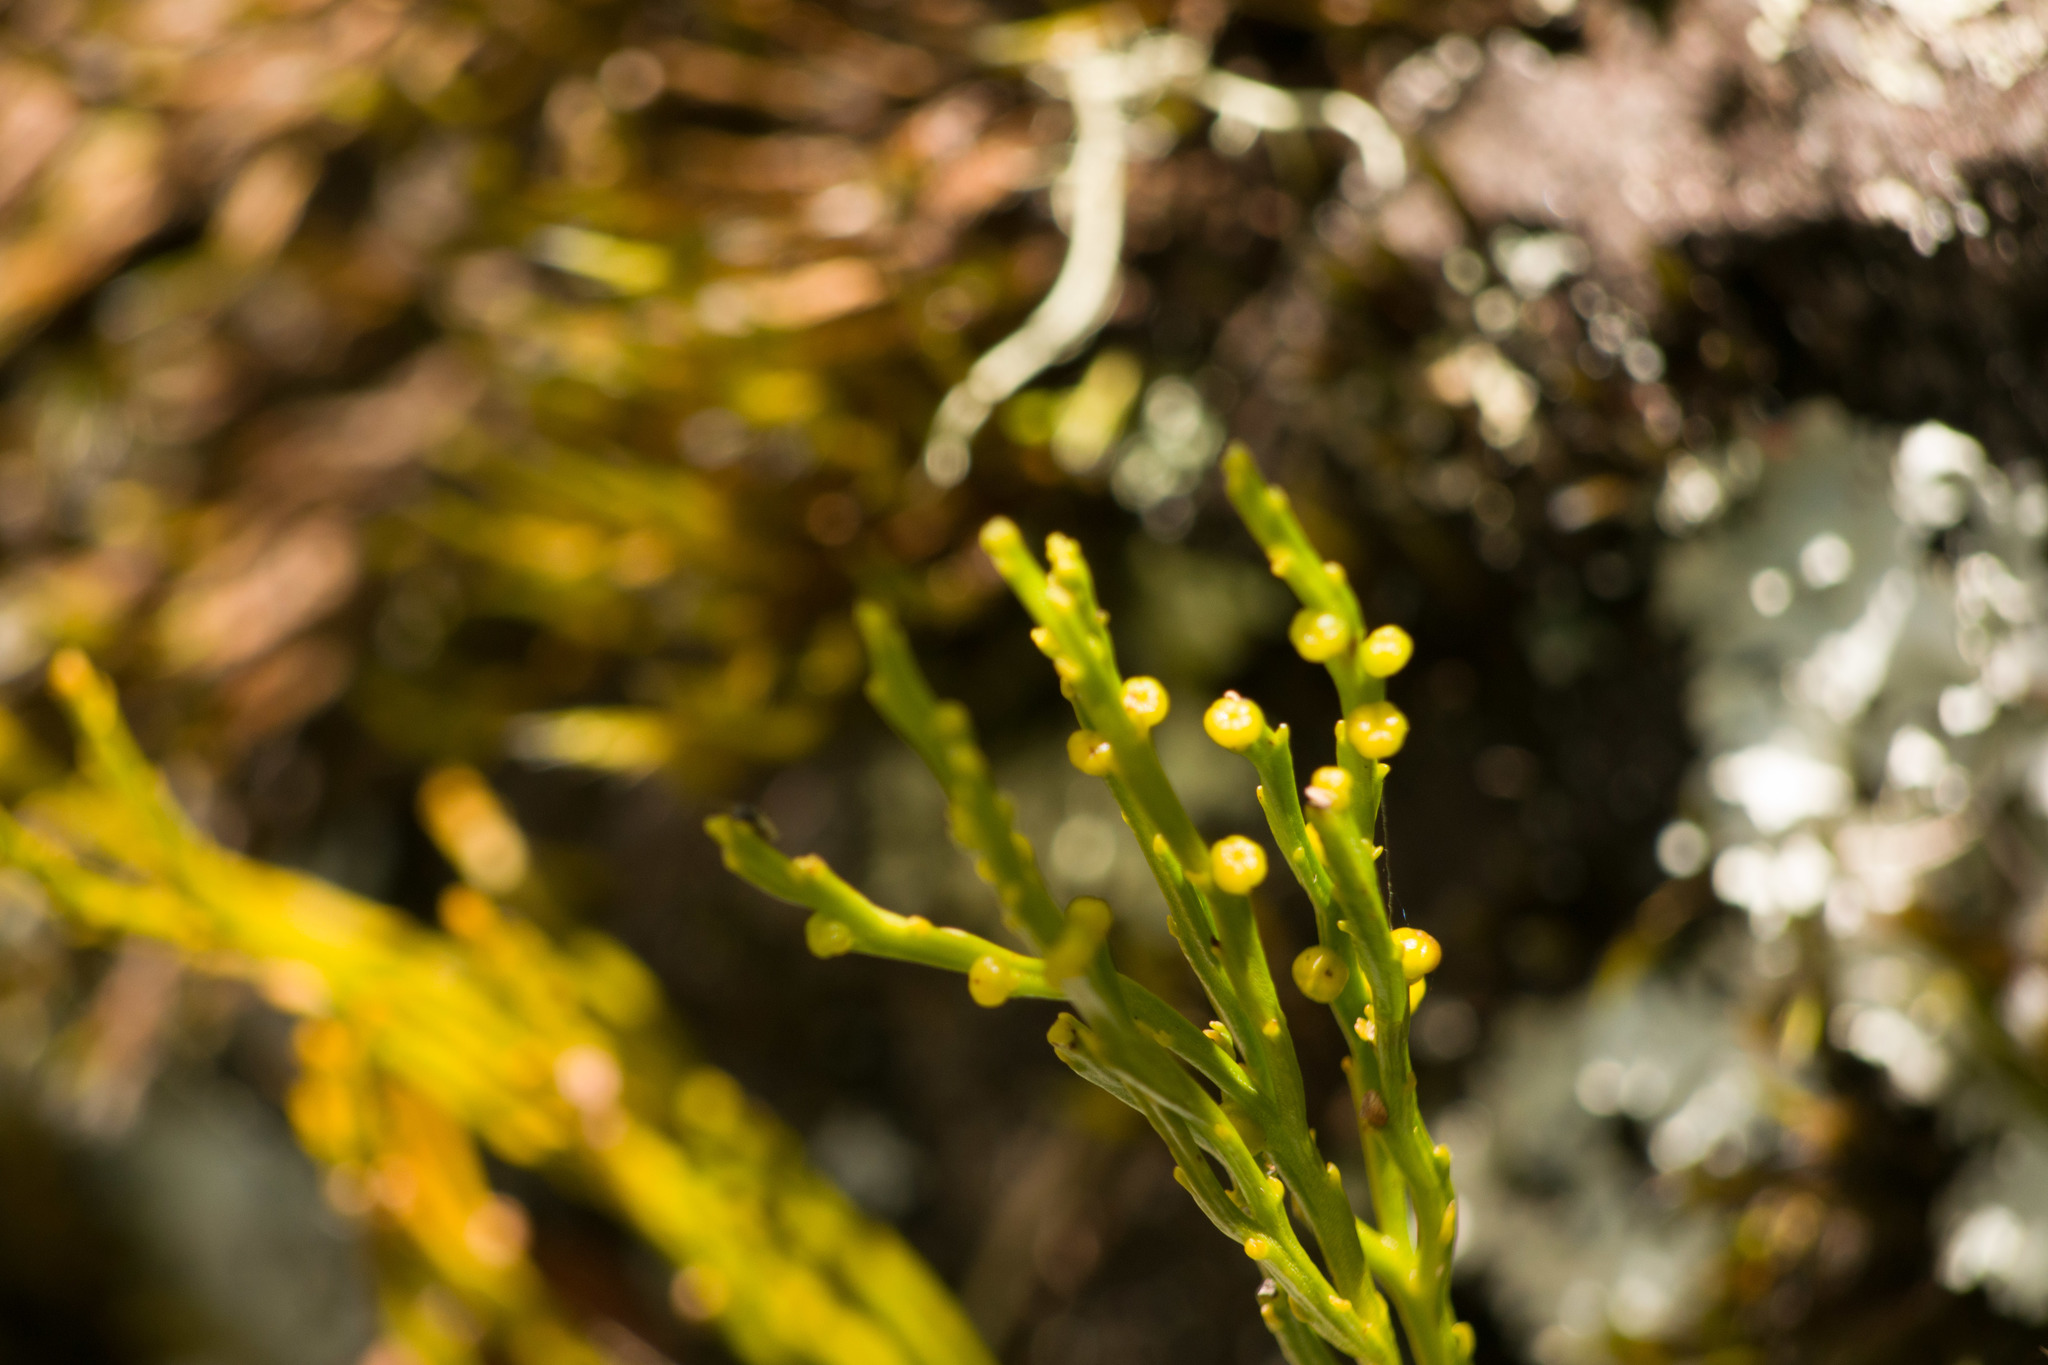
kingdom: Plantae
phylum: Tracheophyta
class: Polypodiopsida
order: Psilotales
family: Psilotaceae
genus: Psilotum
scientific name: Psilotum nudum
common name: Skeleton fork fern
